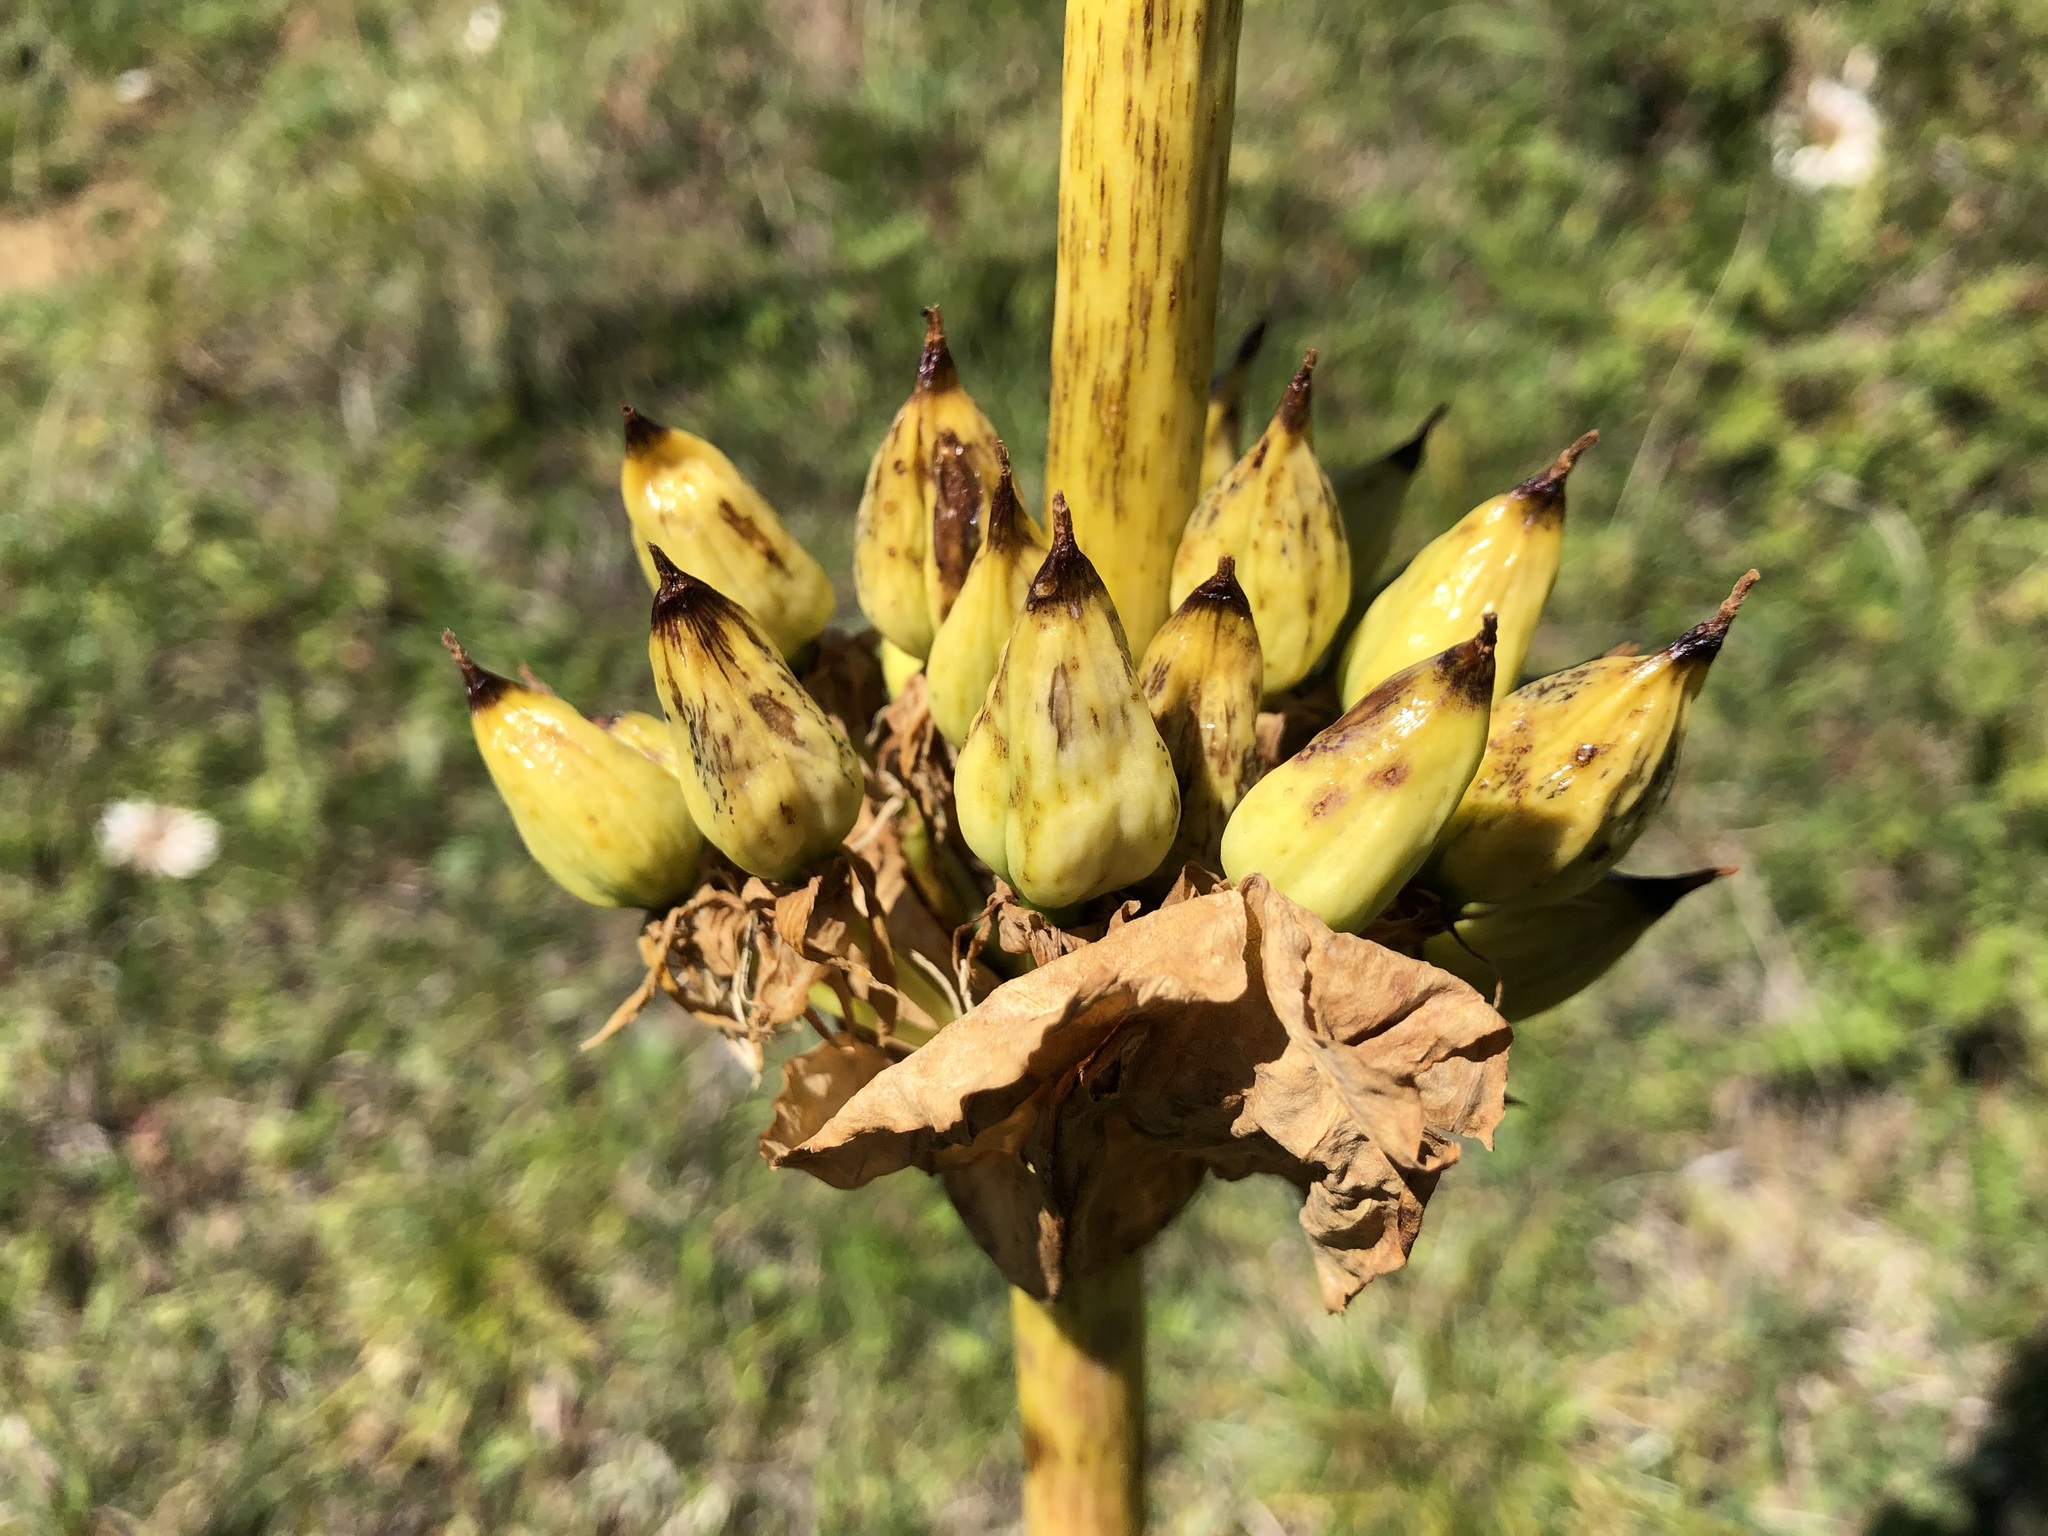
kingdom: Plantae
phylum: Tracheophyta
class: Magnoliopsida
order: Gentianales
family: Gentianaceae
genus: Gentiana
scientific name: Gentiana lutea
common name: Great yellow gentian
